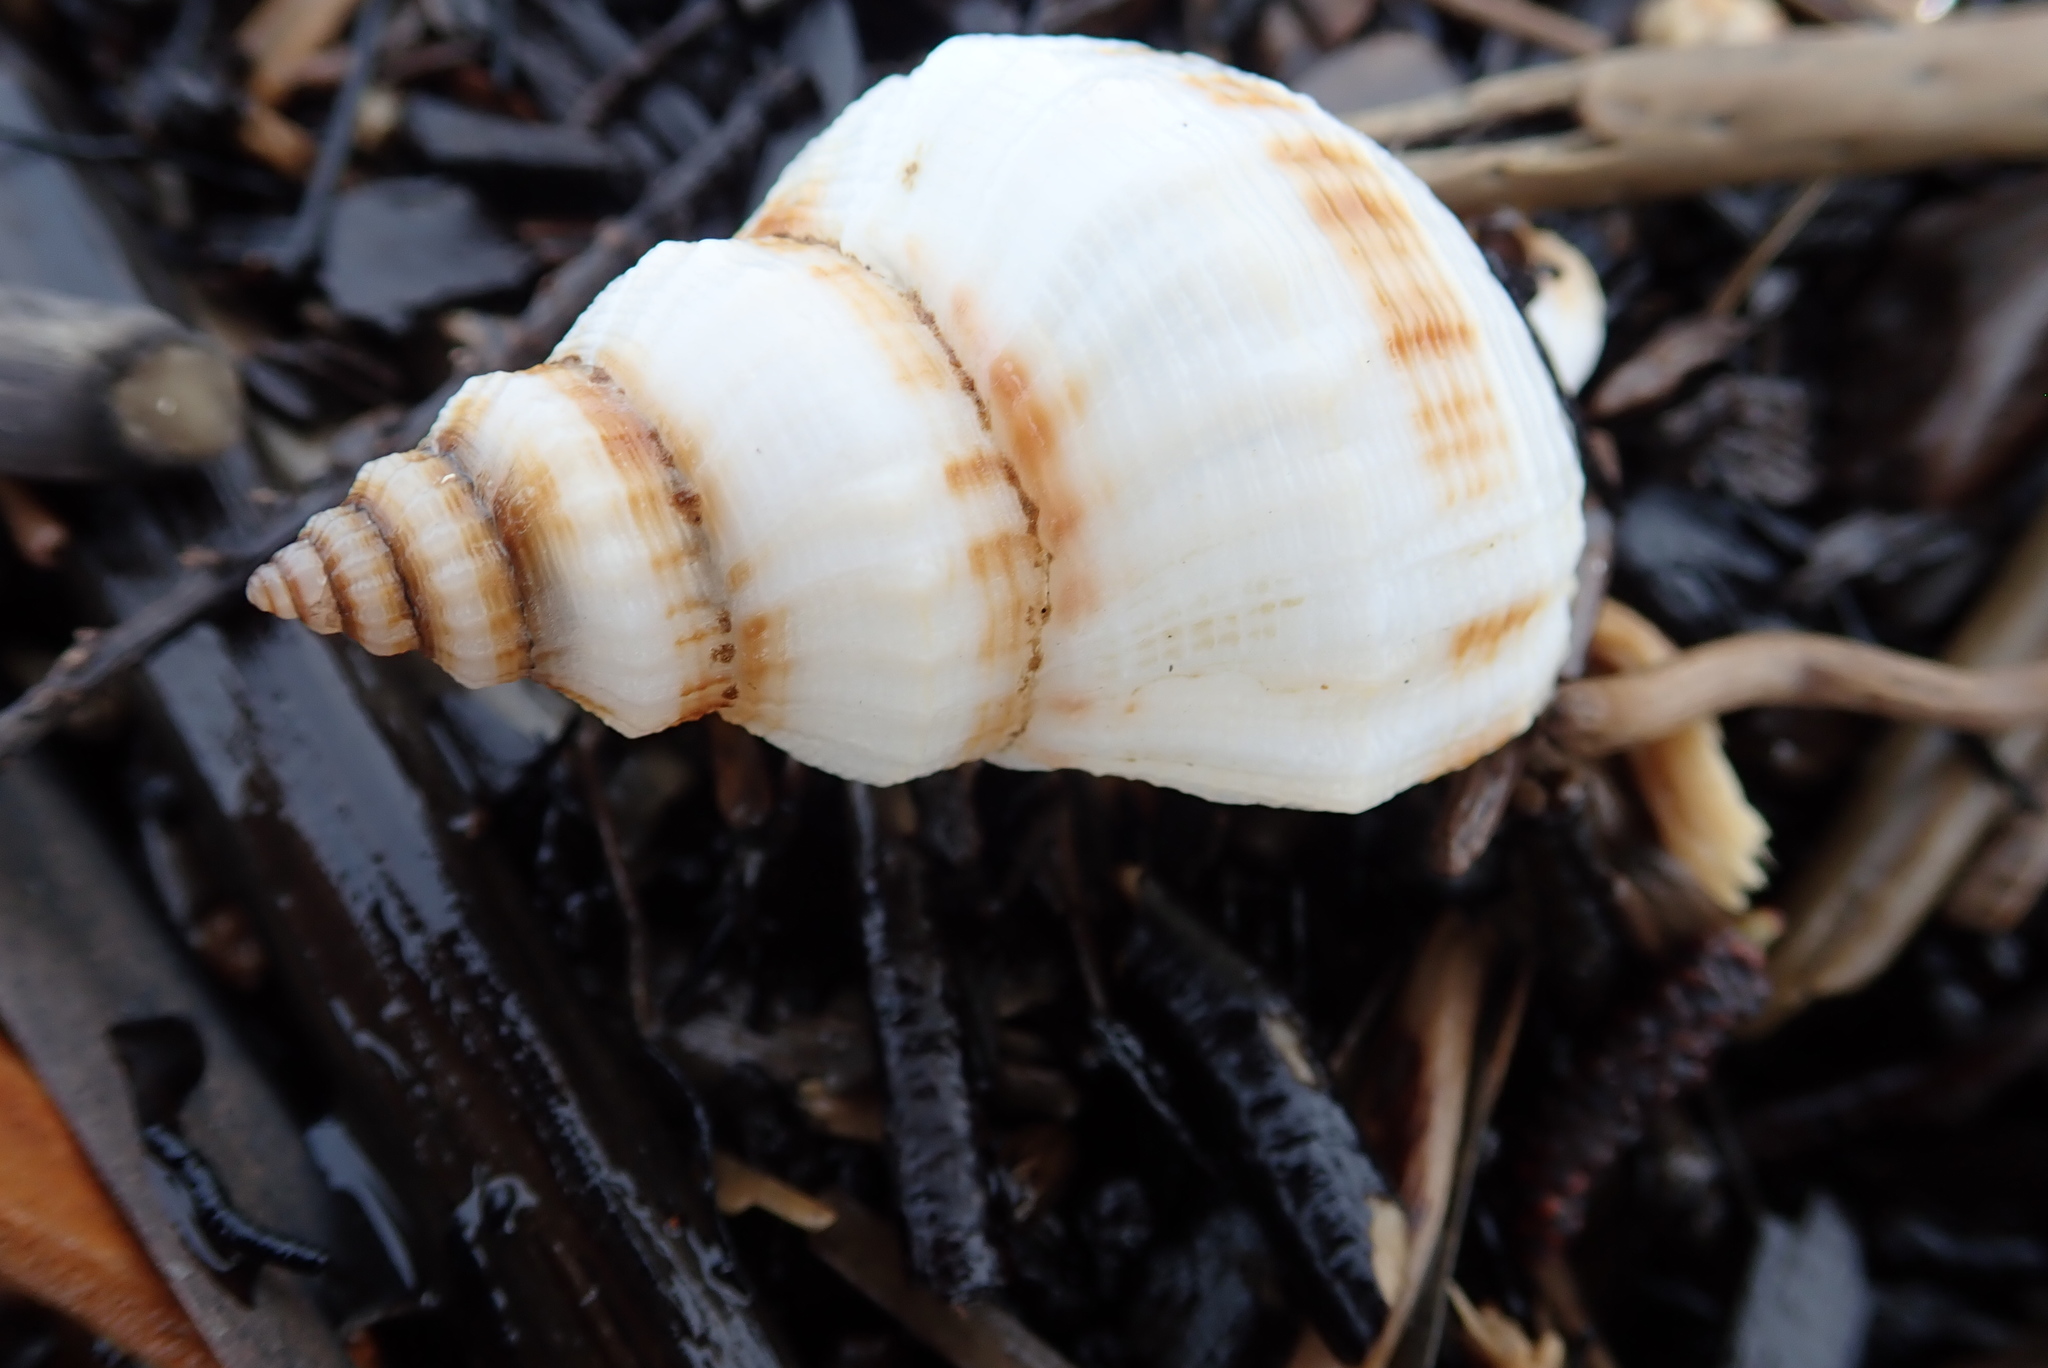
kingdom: Animalia
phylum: Mollusca
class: Gastropoda
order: Neogastropoda
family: Prosiphonidae
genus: Austrofusus
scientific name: Austrofusus glans
